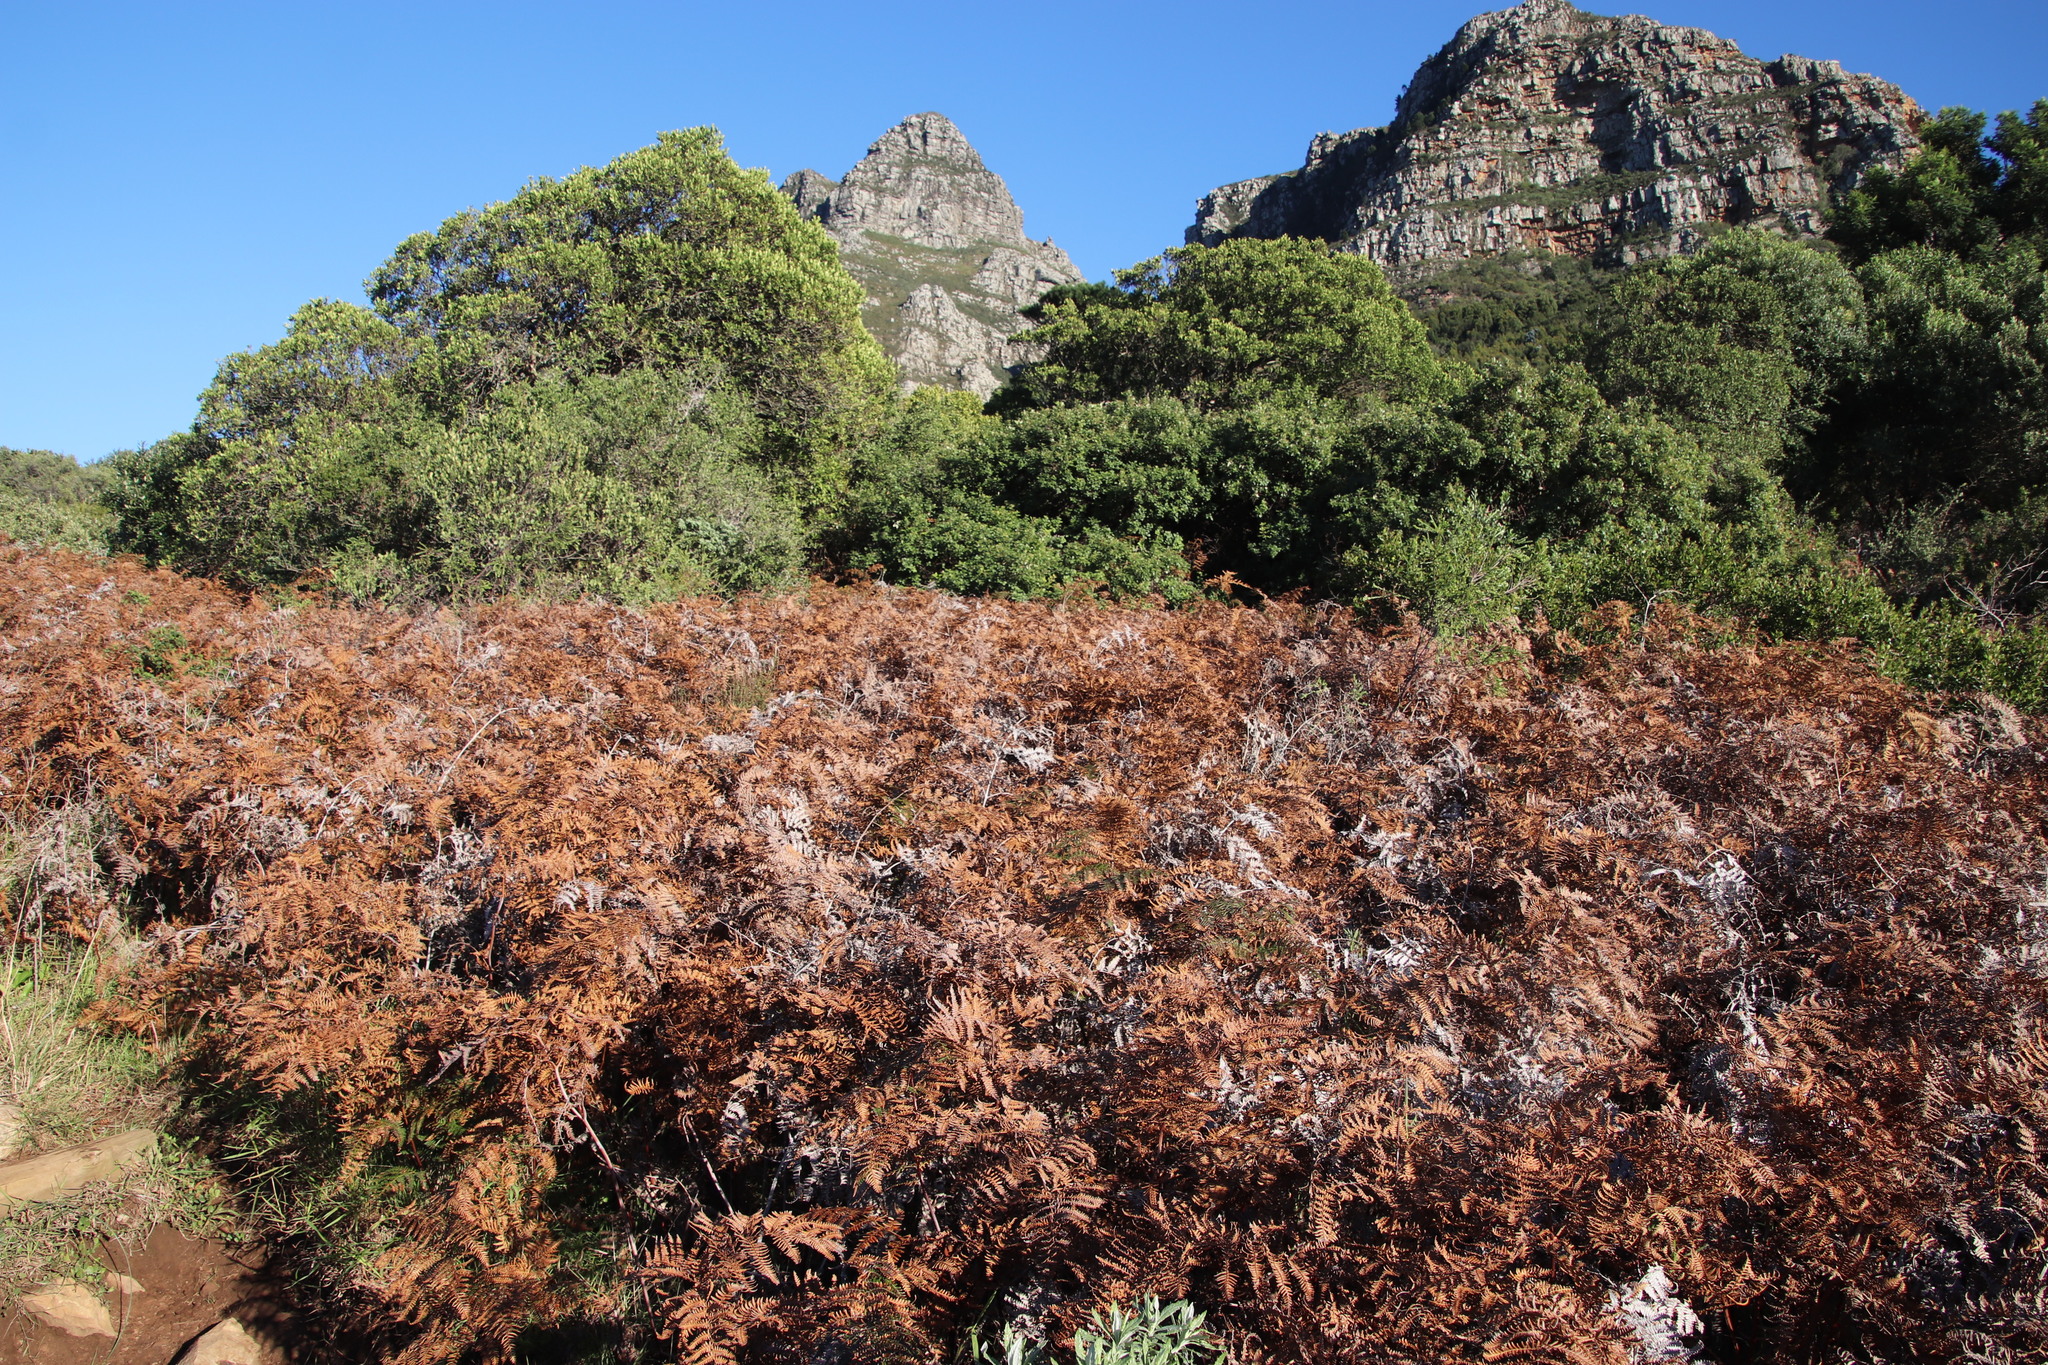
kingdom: Plantae
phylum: Tracheophyta
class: Polypodiopsida
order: Polypodiales
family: Dennstaedtiaceae
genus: Pteridium
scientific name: Pteridium aquilinum
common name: Bracken
